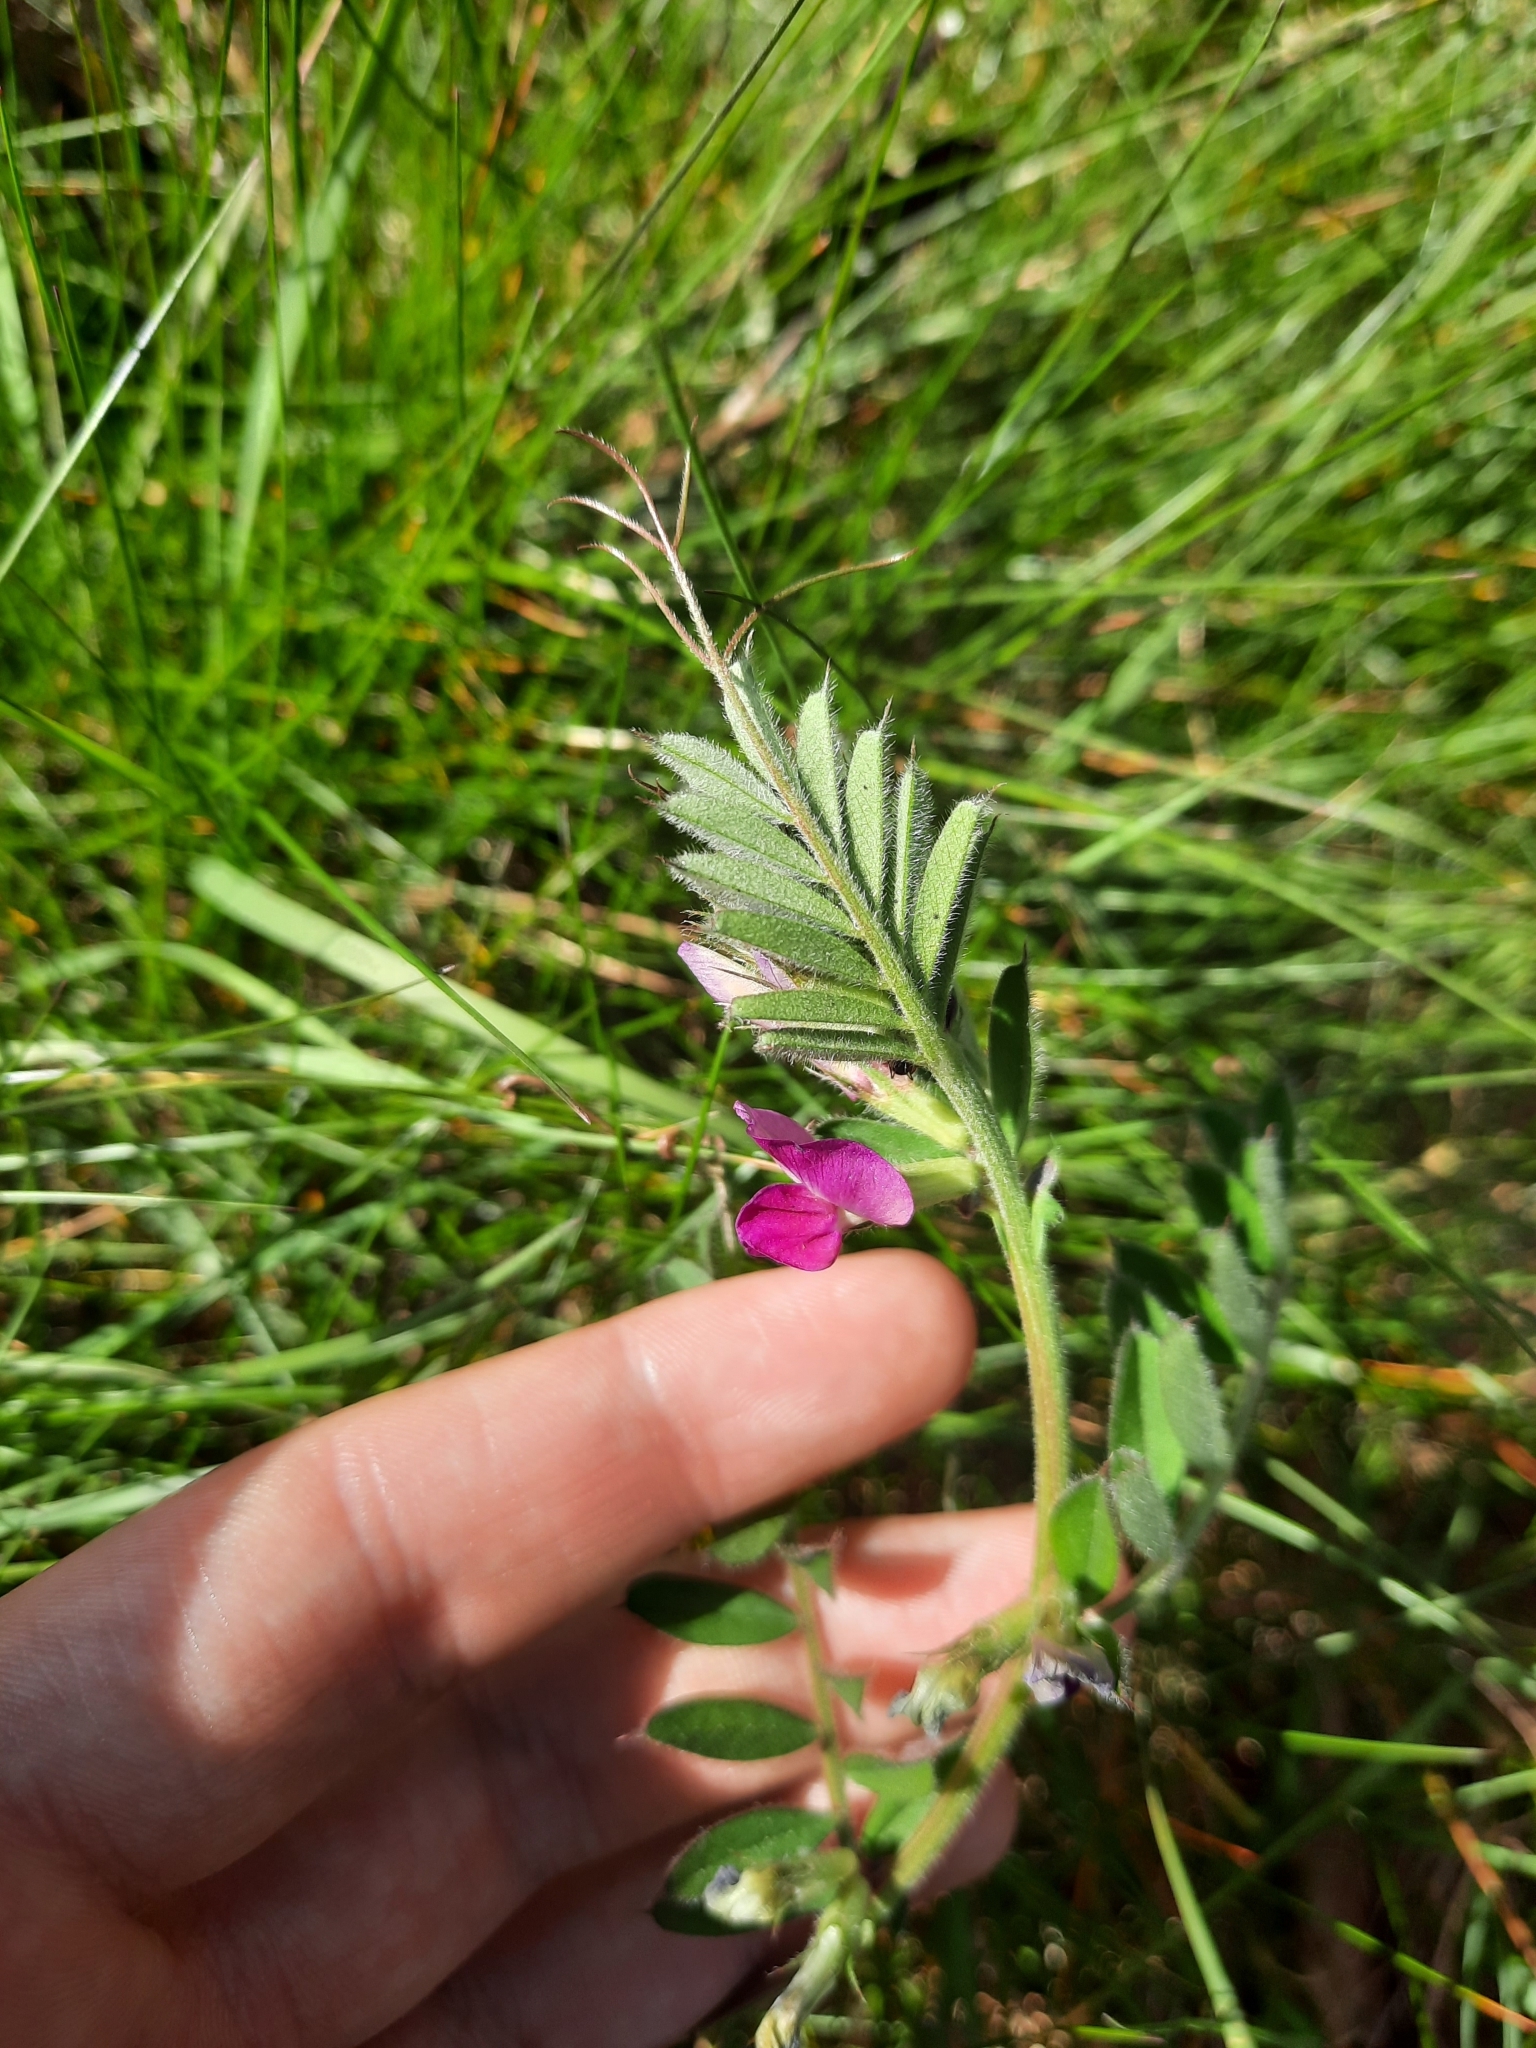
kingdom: Plantae
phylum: Tracheophyta
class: Magnoliopsida
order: Fabales
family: Fabaceae
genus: Vicia
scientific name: Vicia sativa
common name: Garden vetch
